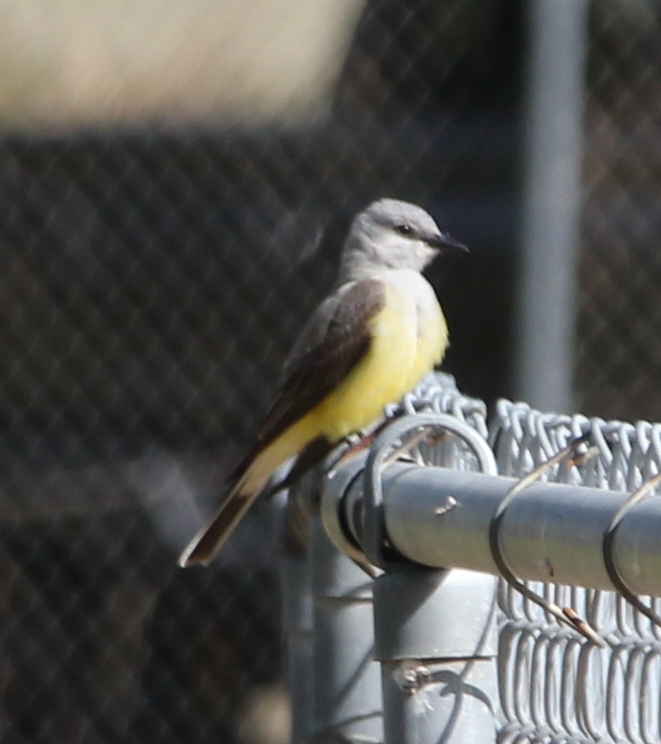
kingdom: Animalia
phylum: Chordata
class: Aves
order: Passeriformes
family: Tyrannidae
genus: Tyrannus
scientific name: Tyrannus verticalis
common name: Western kingbird
